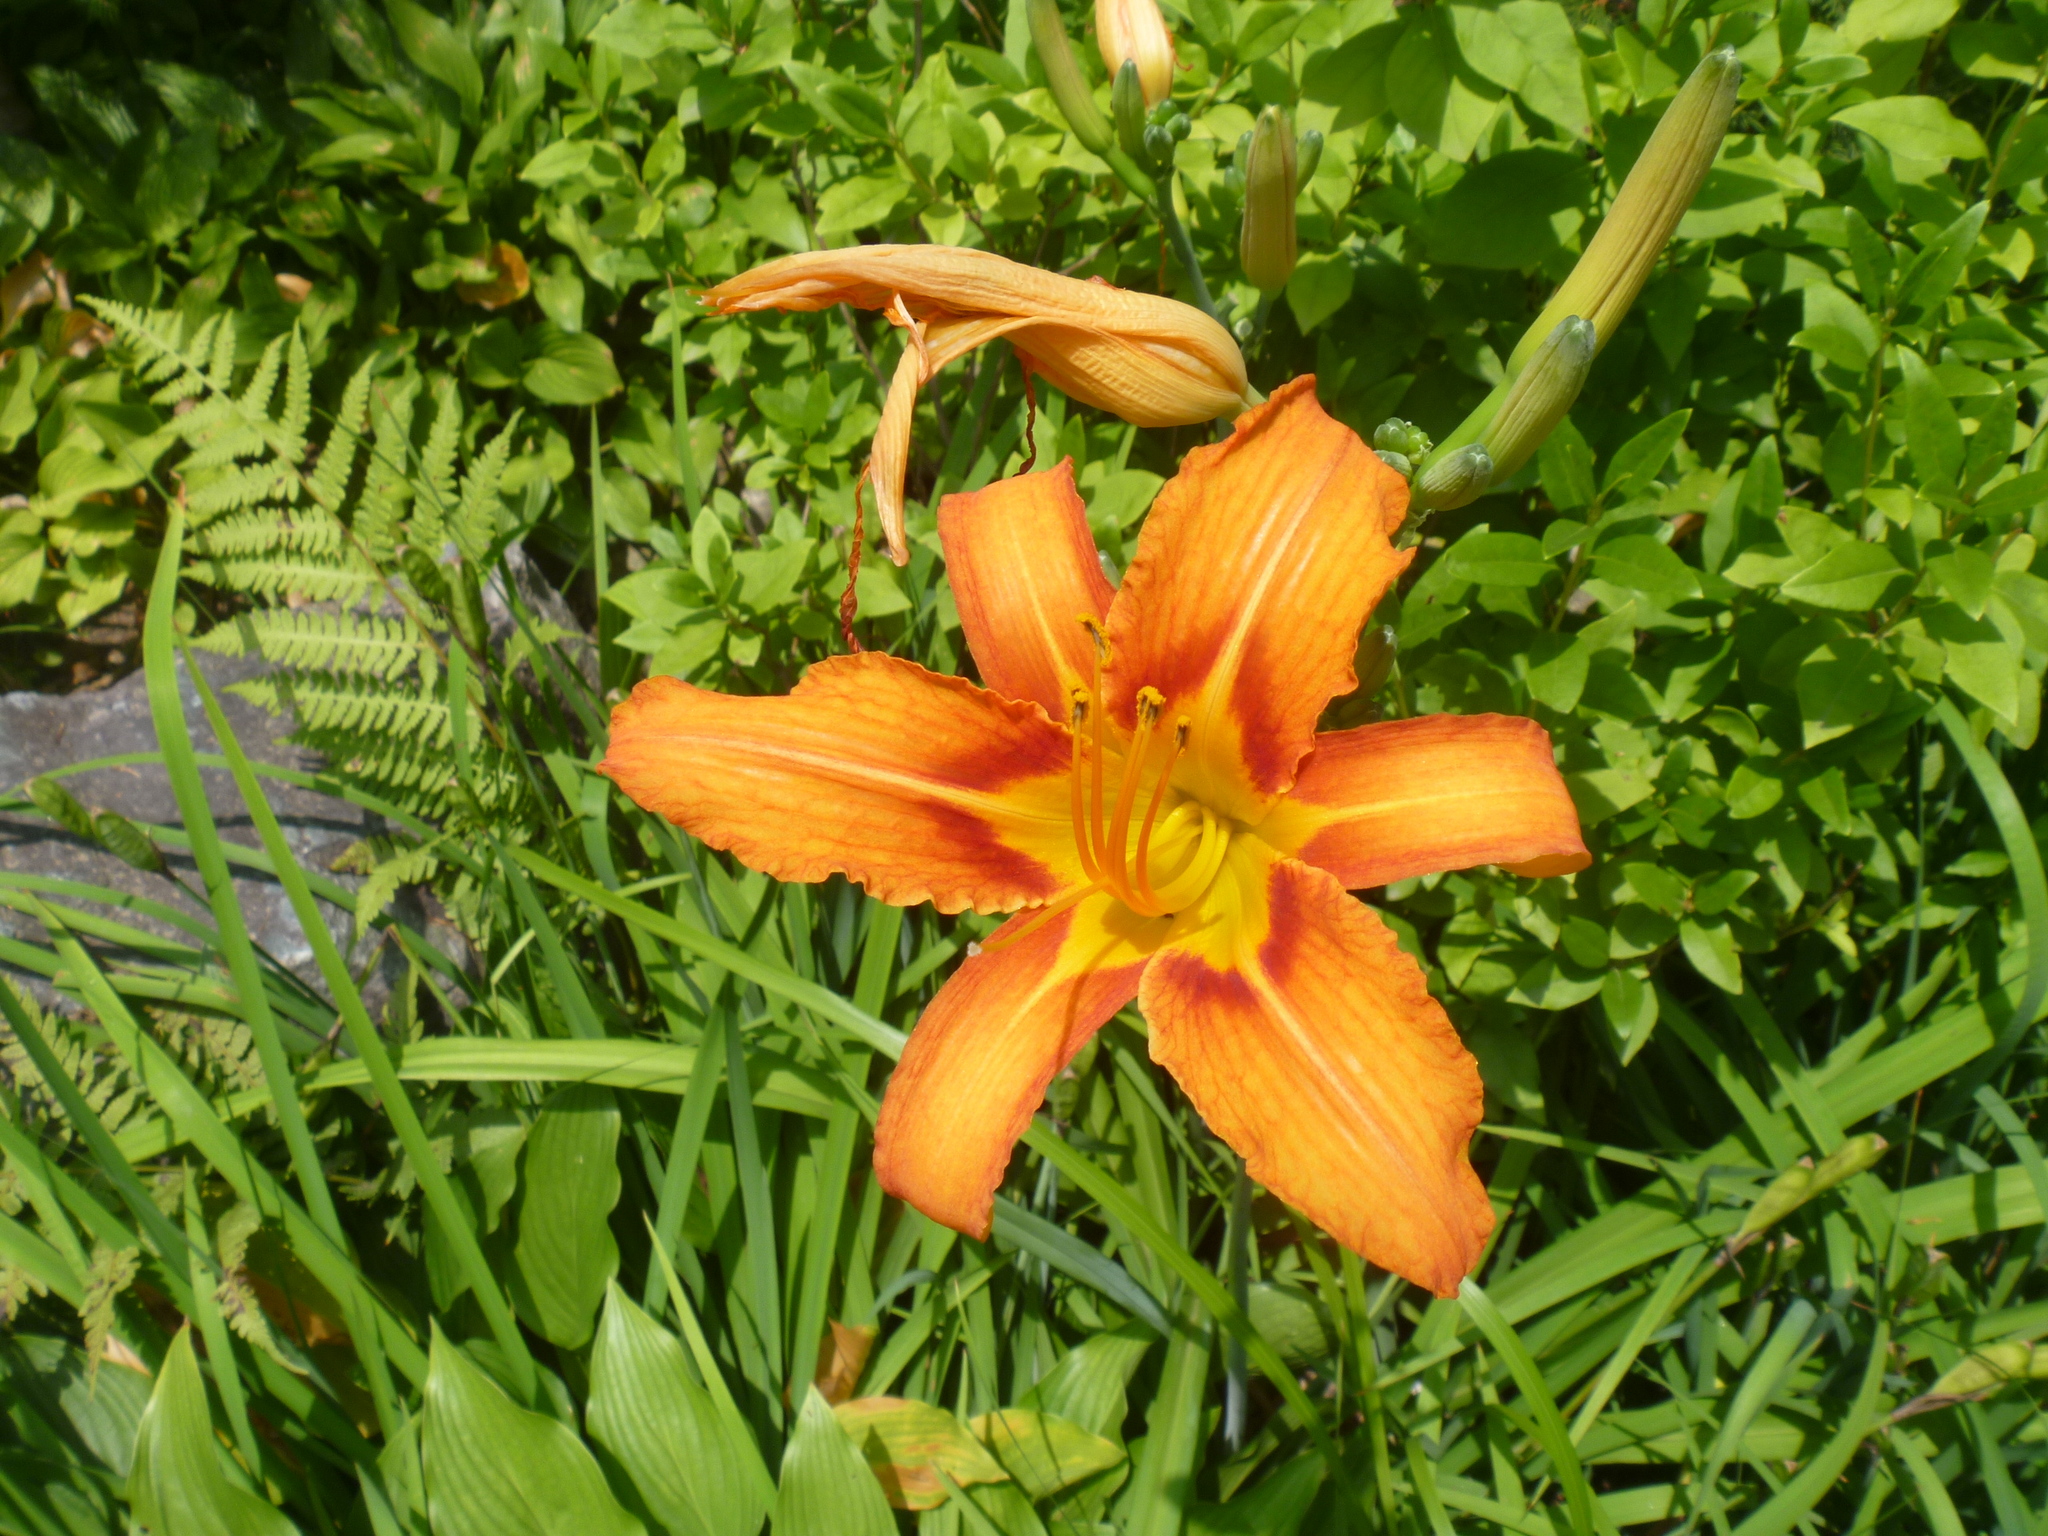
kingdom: Plantae
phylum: Tracheophyta
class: Liliopsida
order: Asparagales
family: Asphodelaceae
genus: Hemerocallis
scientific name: Hemerocallis fulva
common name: Orange day-lily
